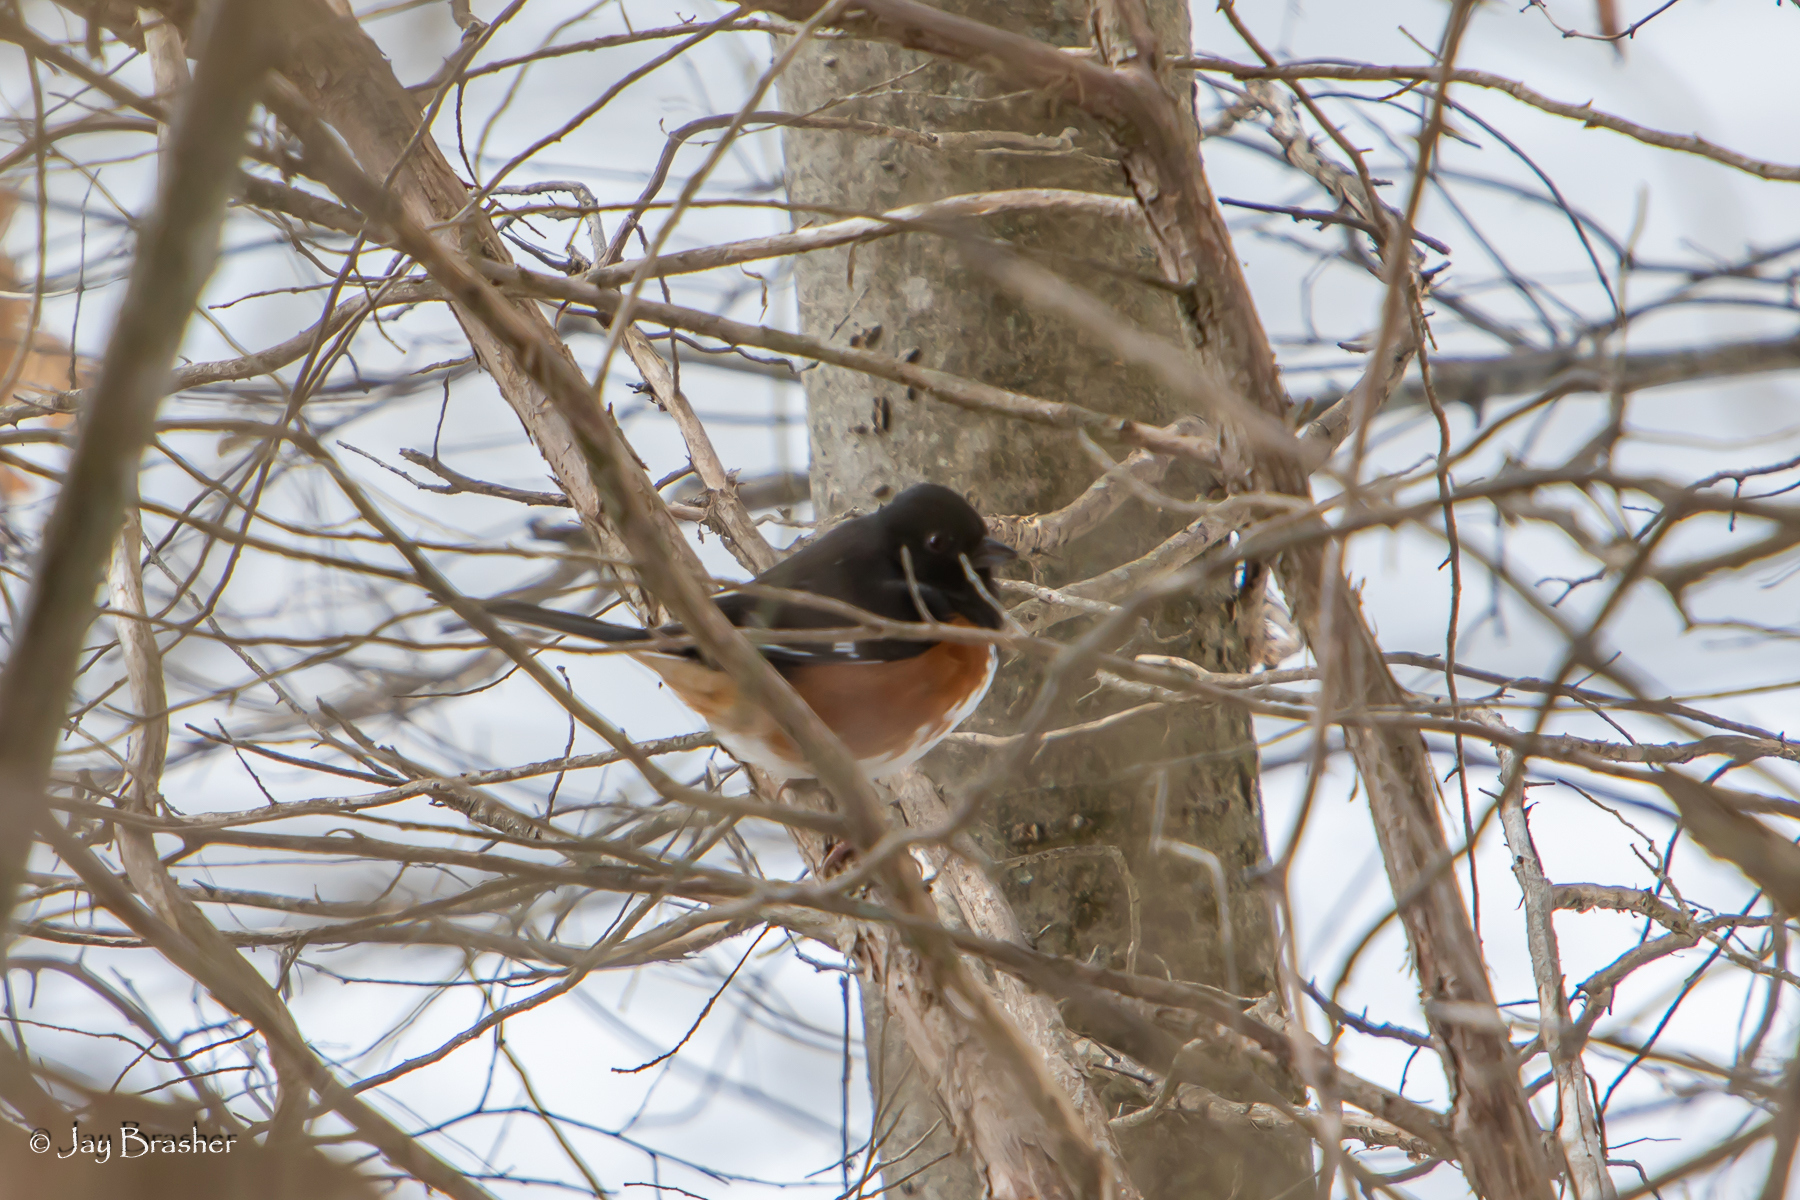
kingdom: Animalia
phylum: Chordata
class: Aves
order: Passeriformes
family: Passerellidae
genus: Pipilo
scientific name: Pipilo erythrophthalmus
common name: Eastern towhee
